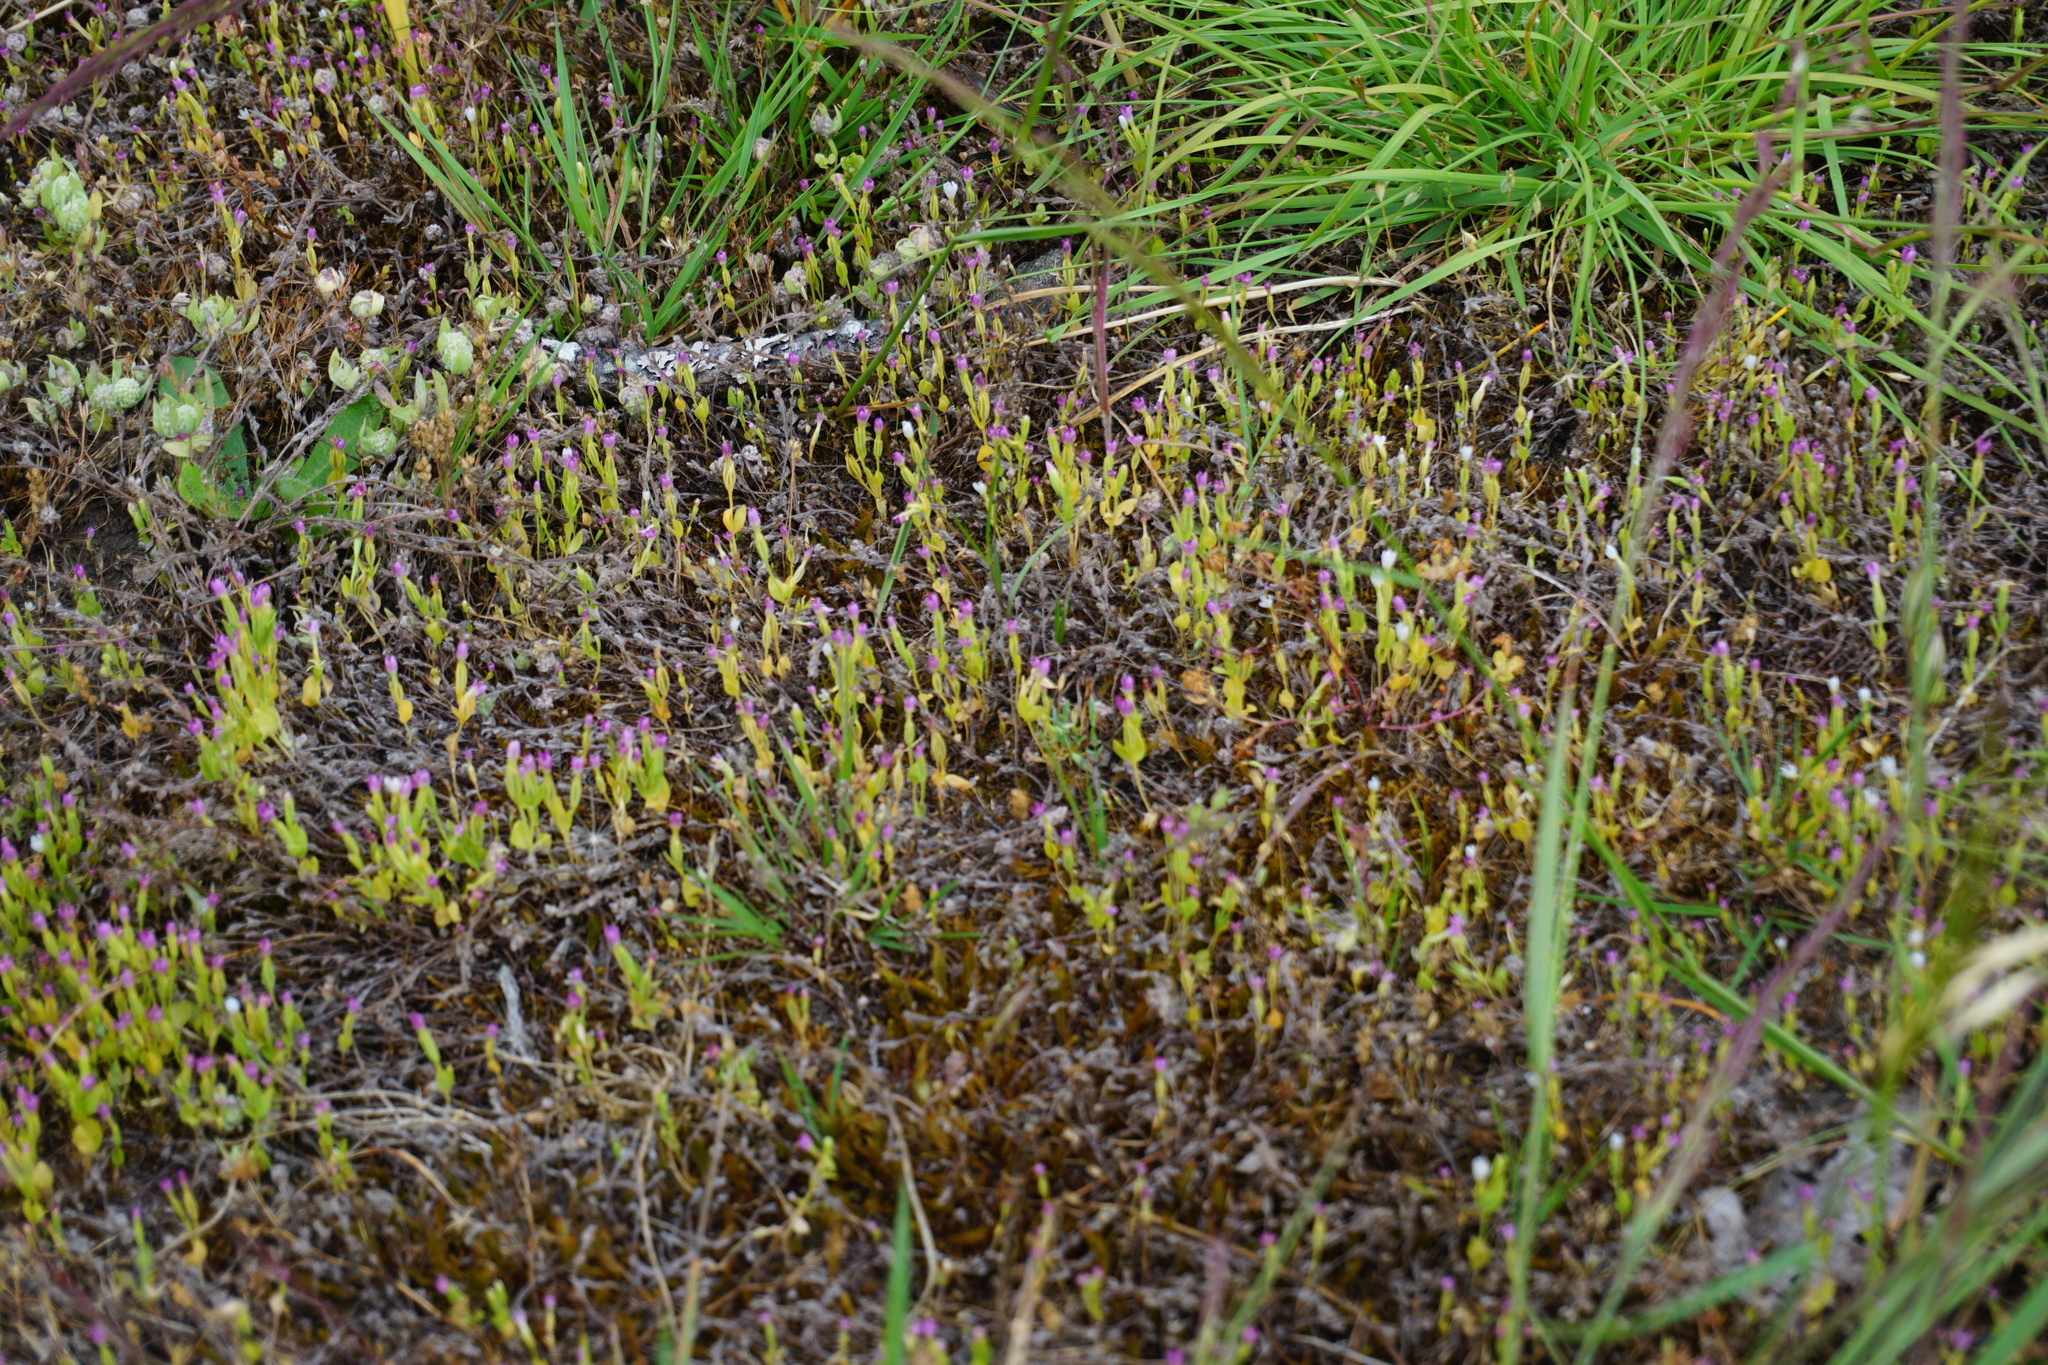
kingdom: Plantae
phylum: Tracheophyta
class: Magnoliopsida
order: Gentianales
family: Gentianaceae
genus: Zeltnera
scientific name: Zeltnera muhlenbergii
